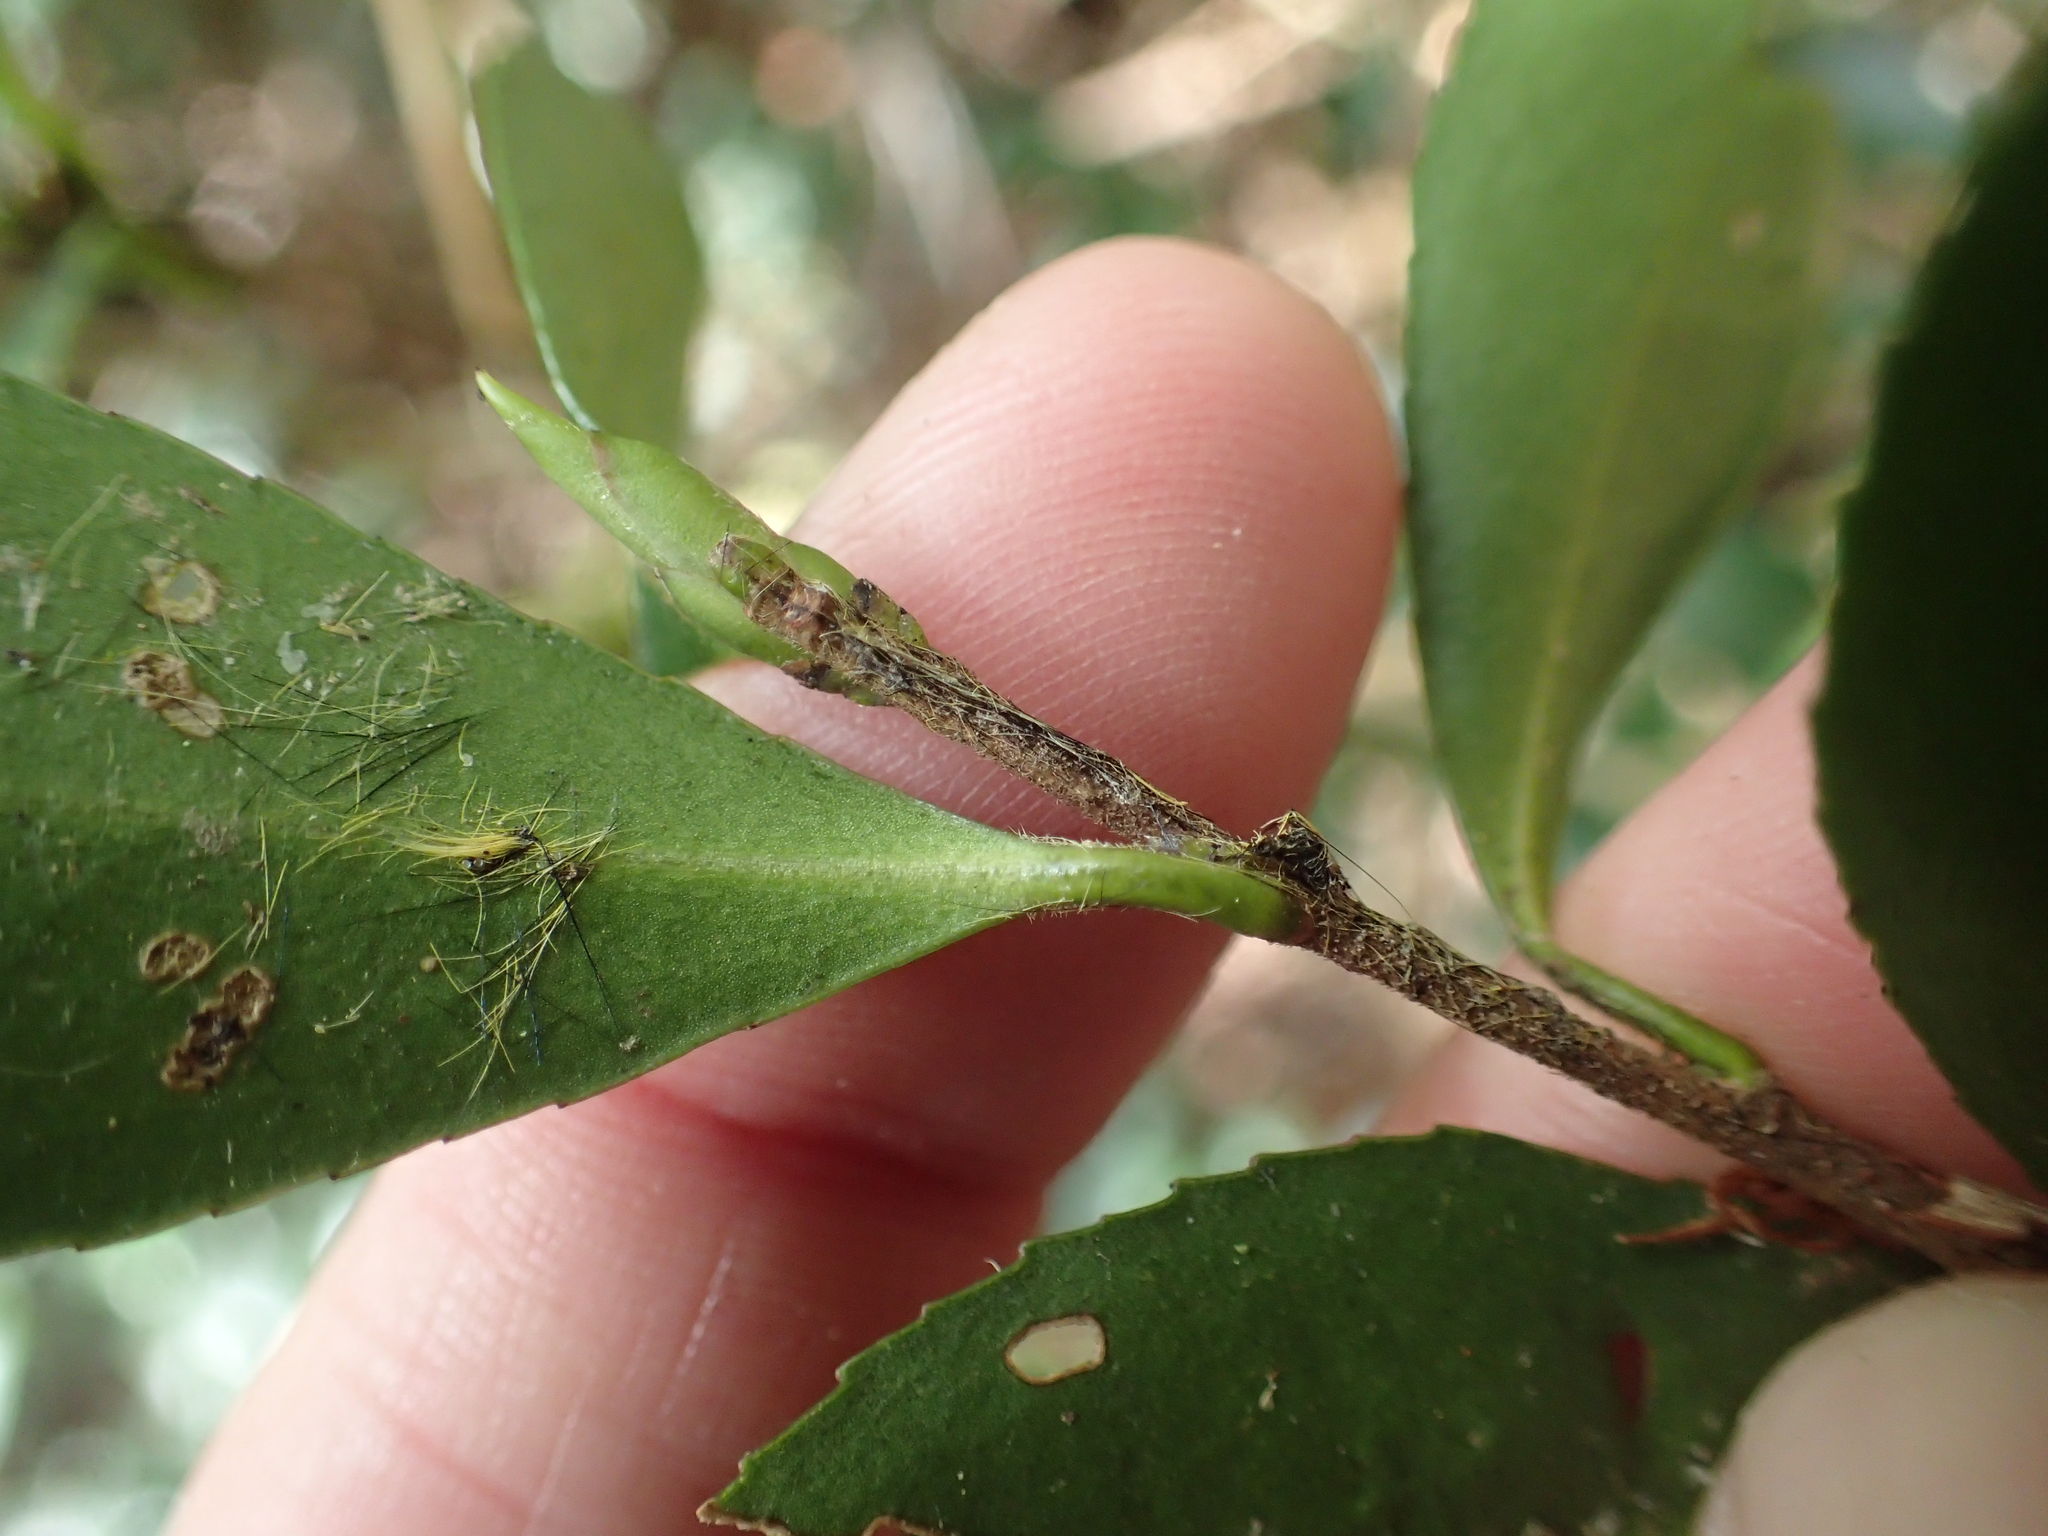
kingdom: Plantae
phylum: Tracheophyta
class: Magnoliopsida
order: Ericales
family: Theaceae
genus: Camellia
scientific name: Camellia brevistyla
